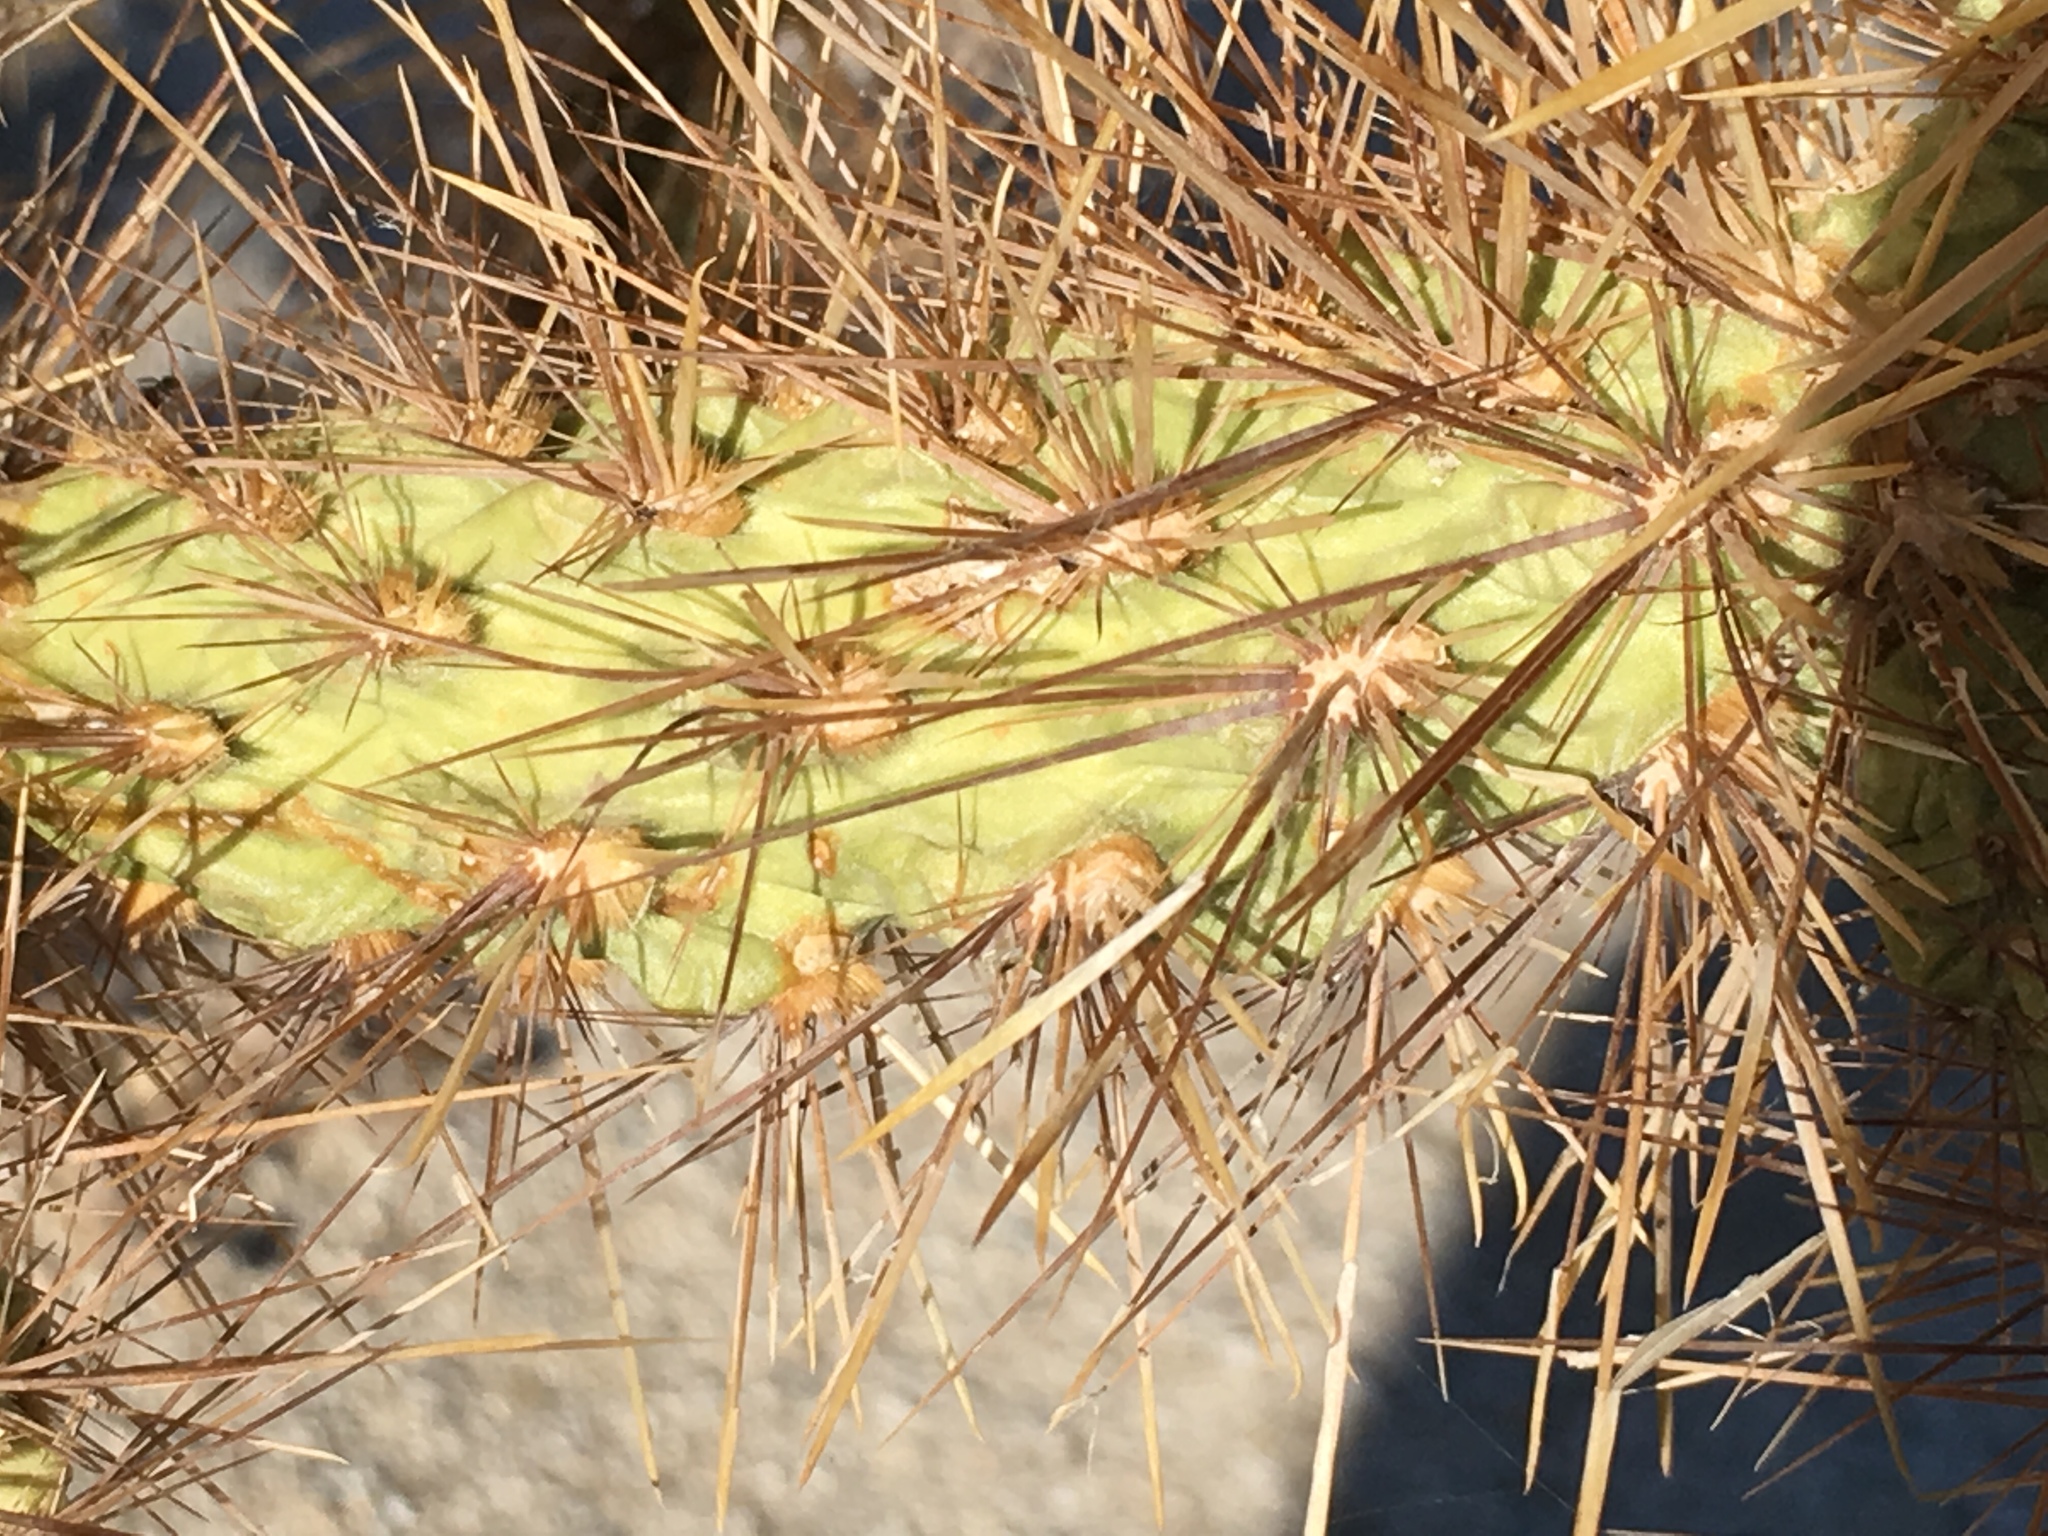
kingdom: Plantae
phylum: Tracheophyta
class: Magnoliopsida
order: Caryophyllales
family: Cactaceae
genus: Cylindropuntia
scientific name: Cylindropuntia echinocarpa
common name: Ground cholla
